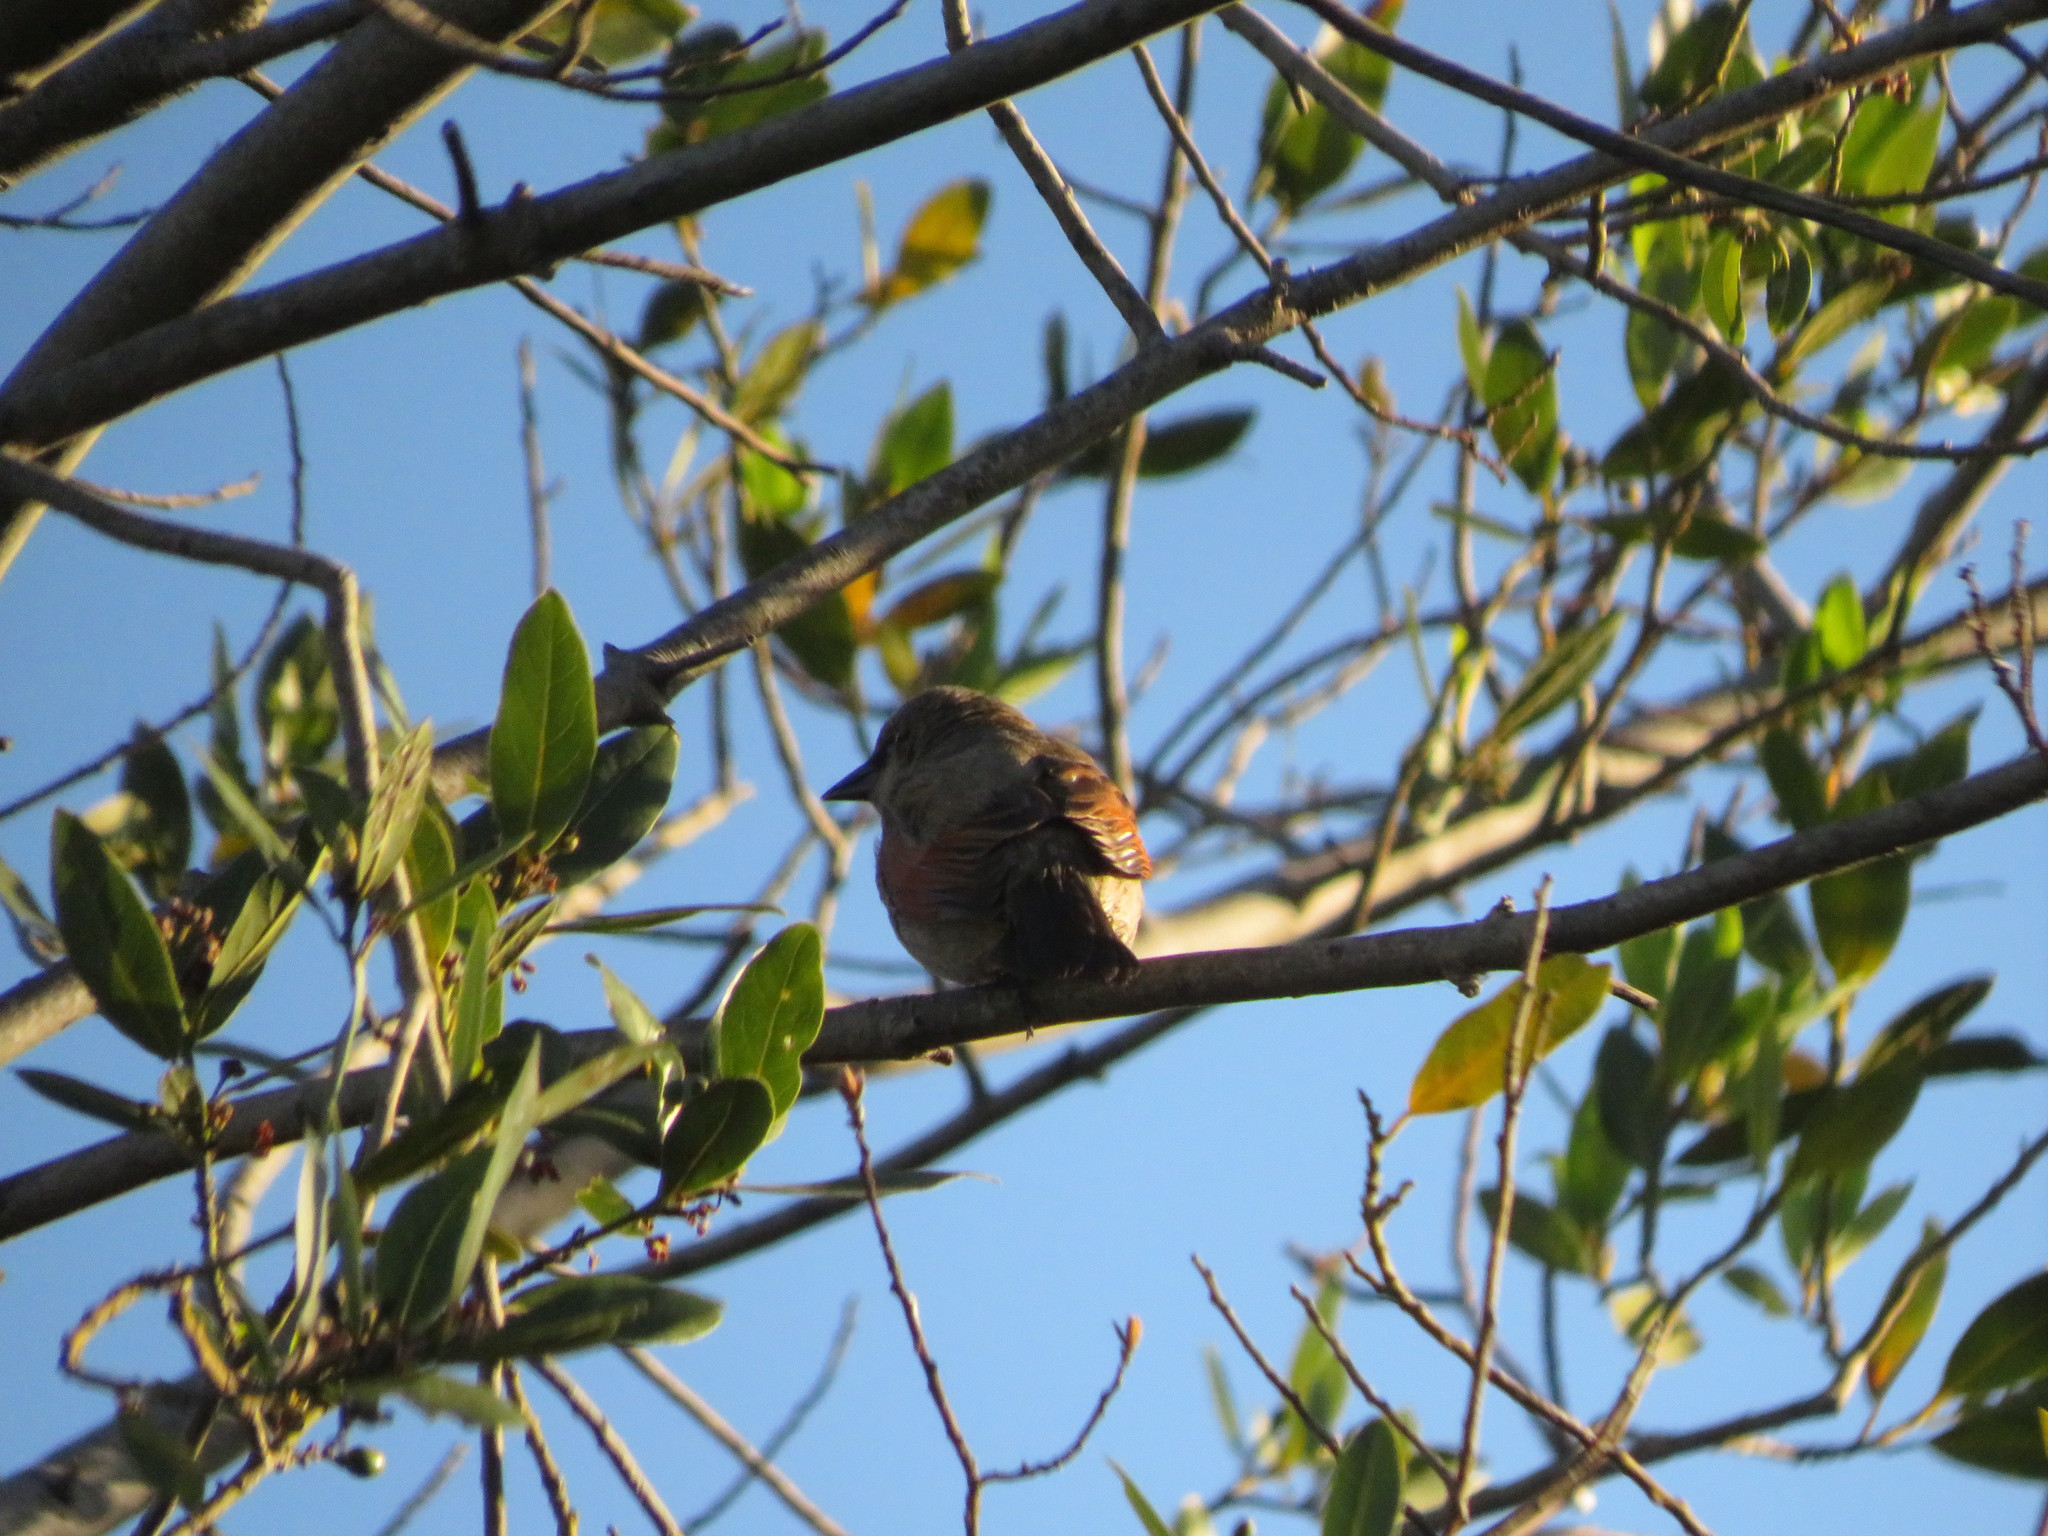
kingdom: Animalia
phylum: Chordata
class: Aves
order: Passeriformes
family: Icteridae
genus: Agelaioides
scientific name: Agelaioides badius
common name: Baywing
